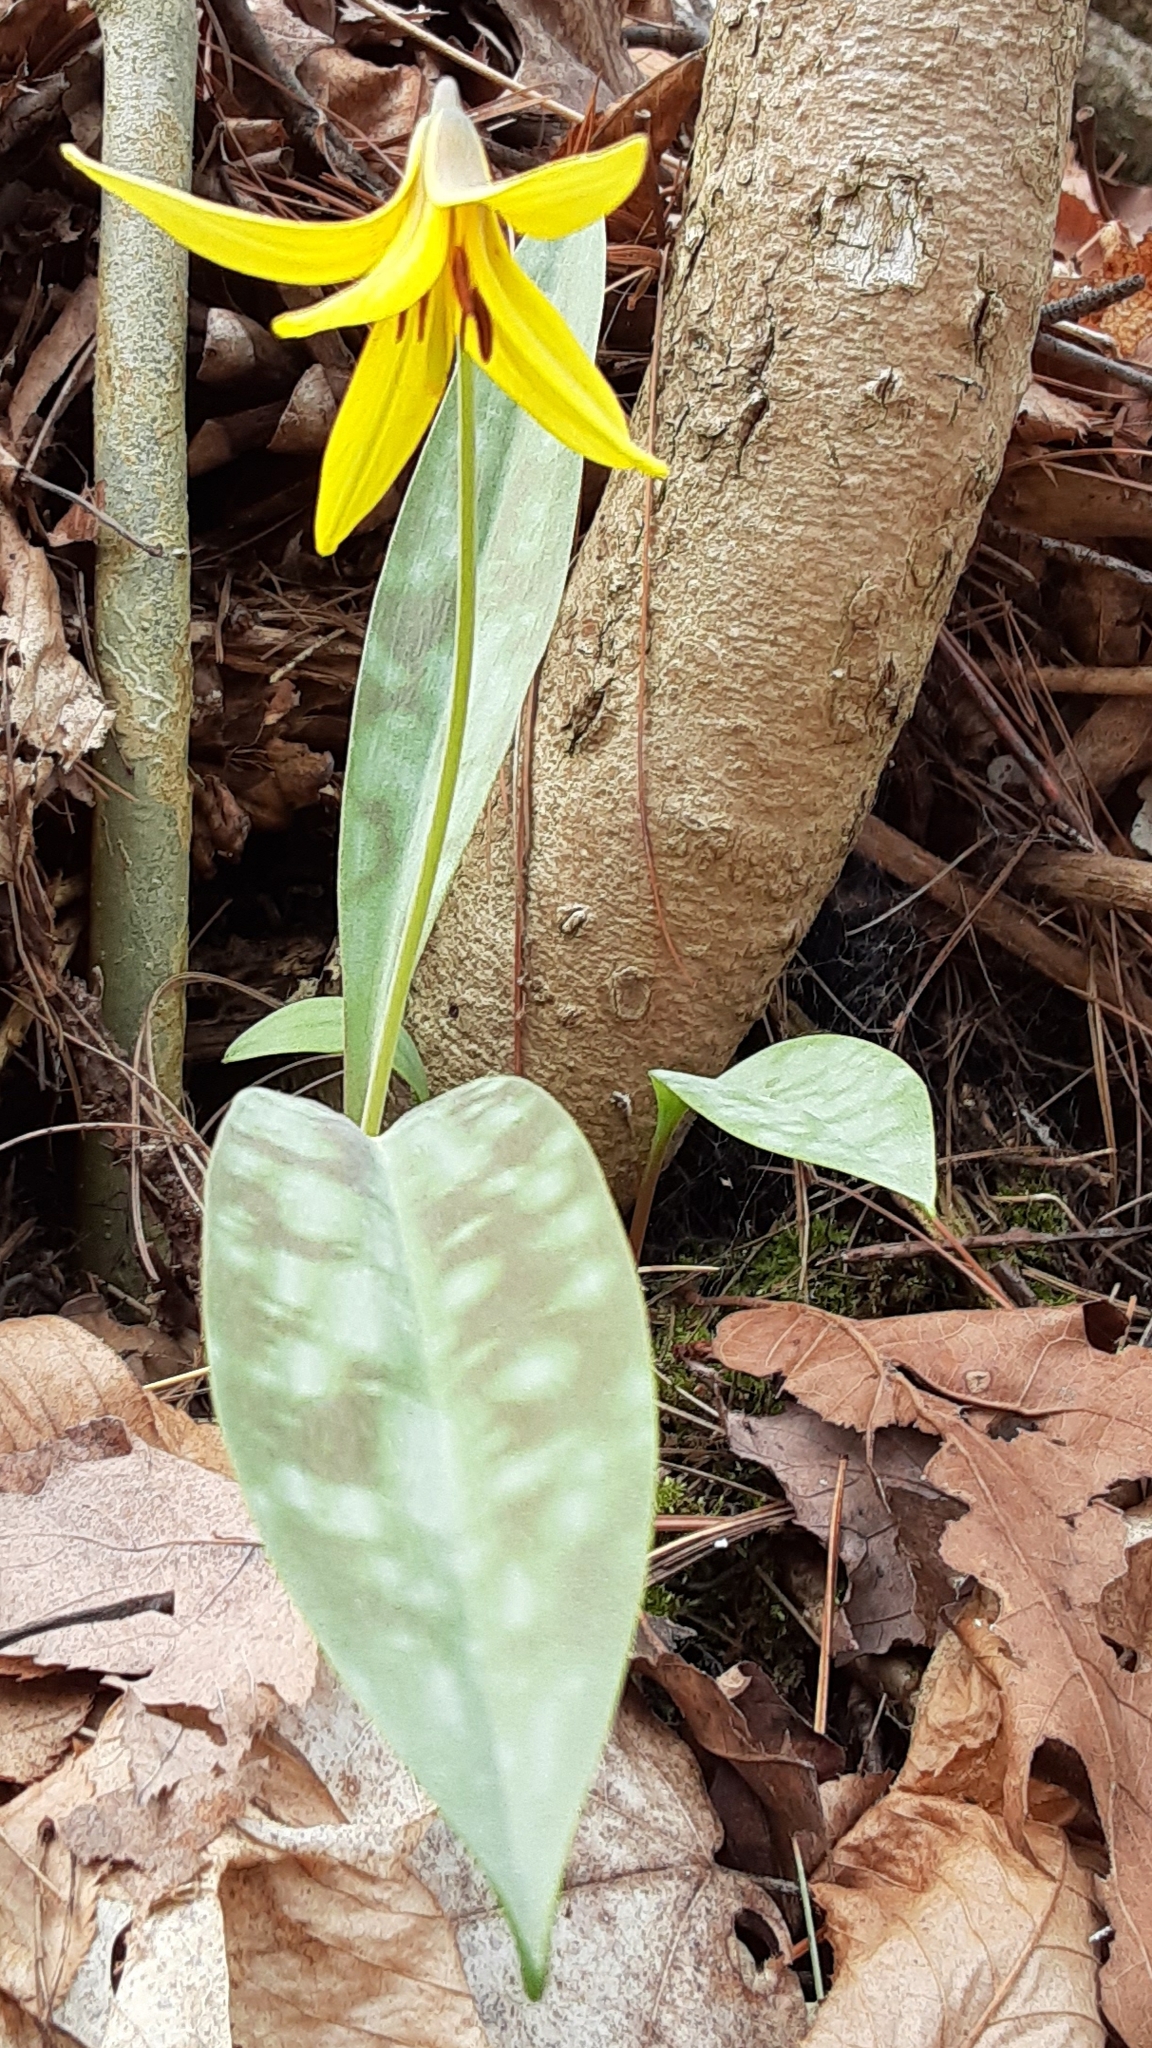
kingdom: Plantae
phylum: Tracheophyta
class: Liliopsida
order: Liliales
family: Liliaceae
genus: Erythronium
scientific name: Erythronium americanum
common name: Yellow adder's-tongue
